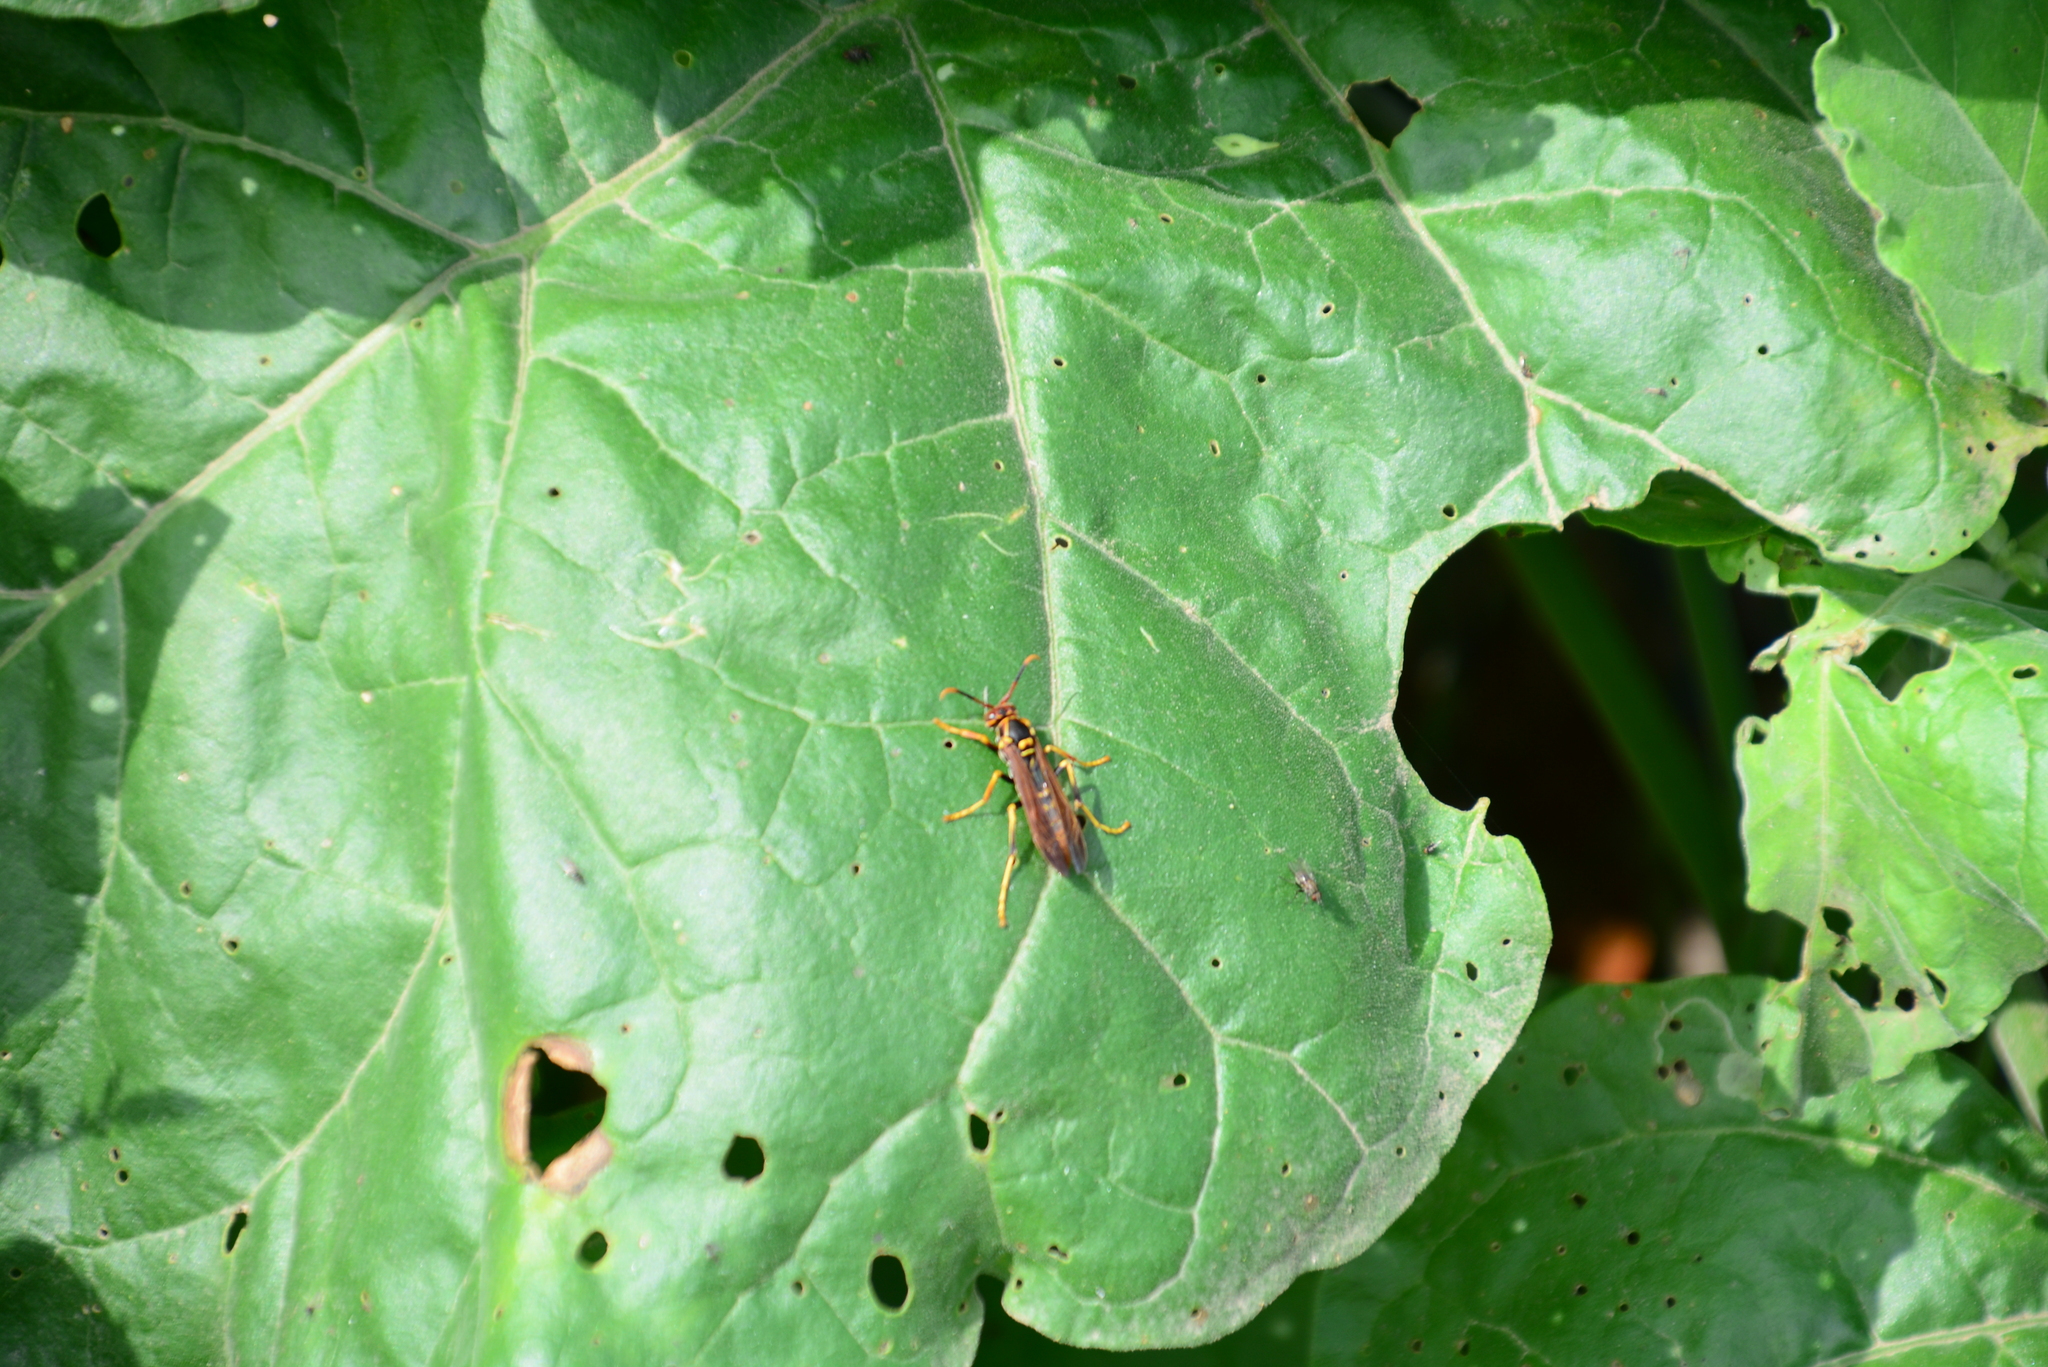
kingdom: Animalia
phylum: Arthropoda
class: Insecta
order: Hymenoptera
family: Eumenidae
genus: Polistes
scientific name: Polistes peruvianus
